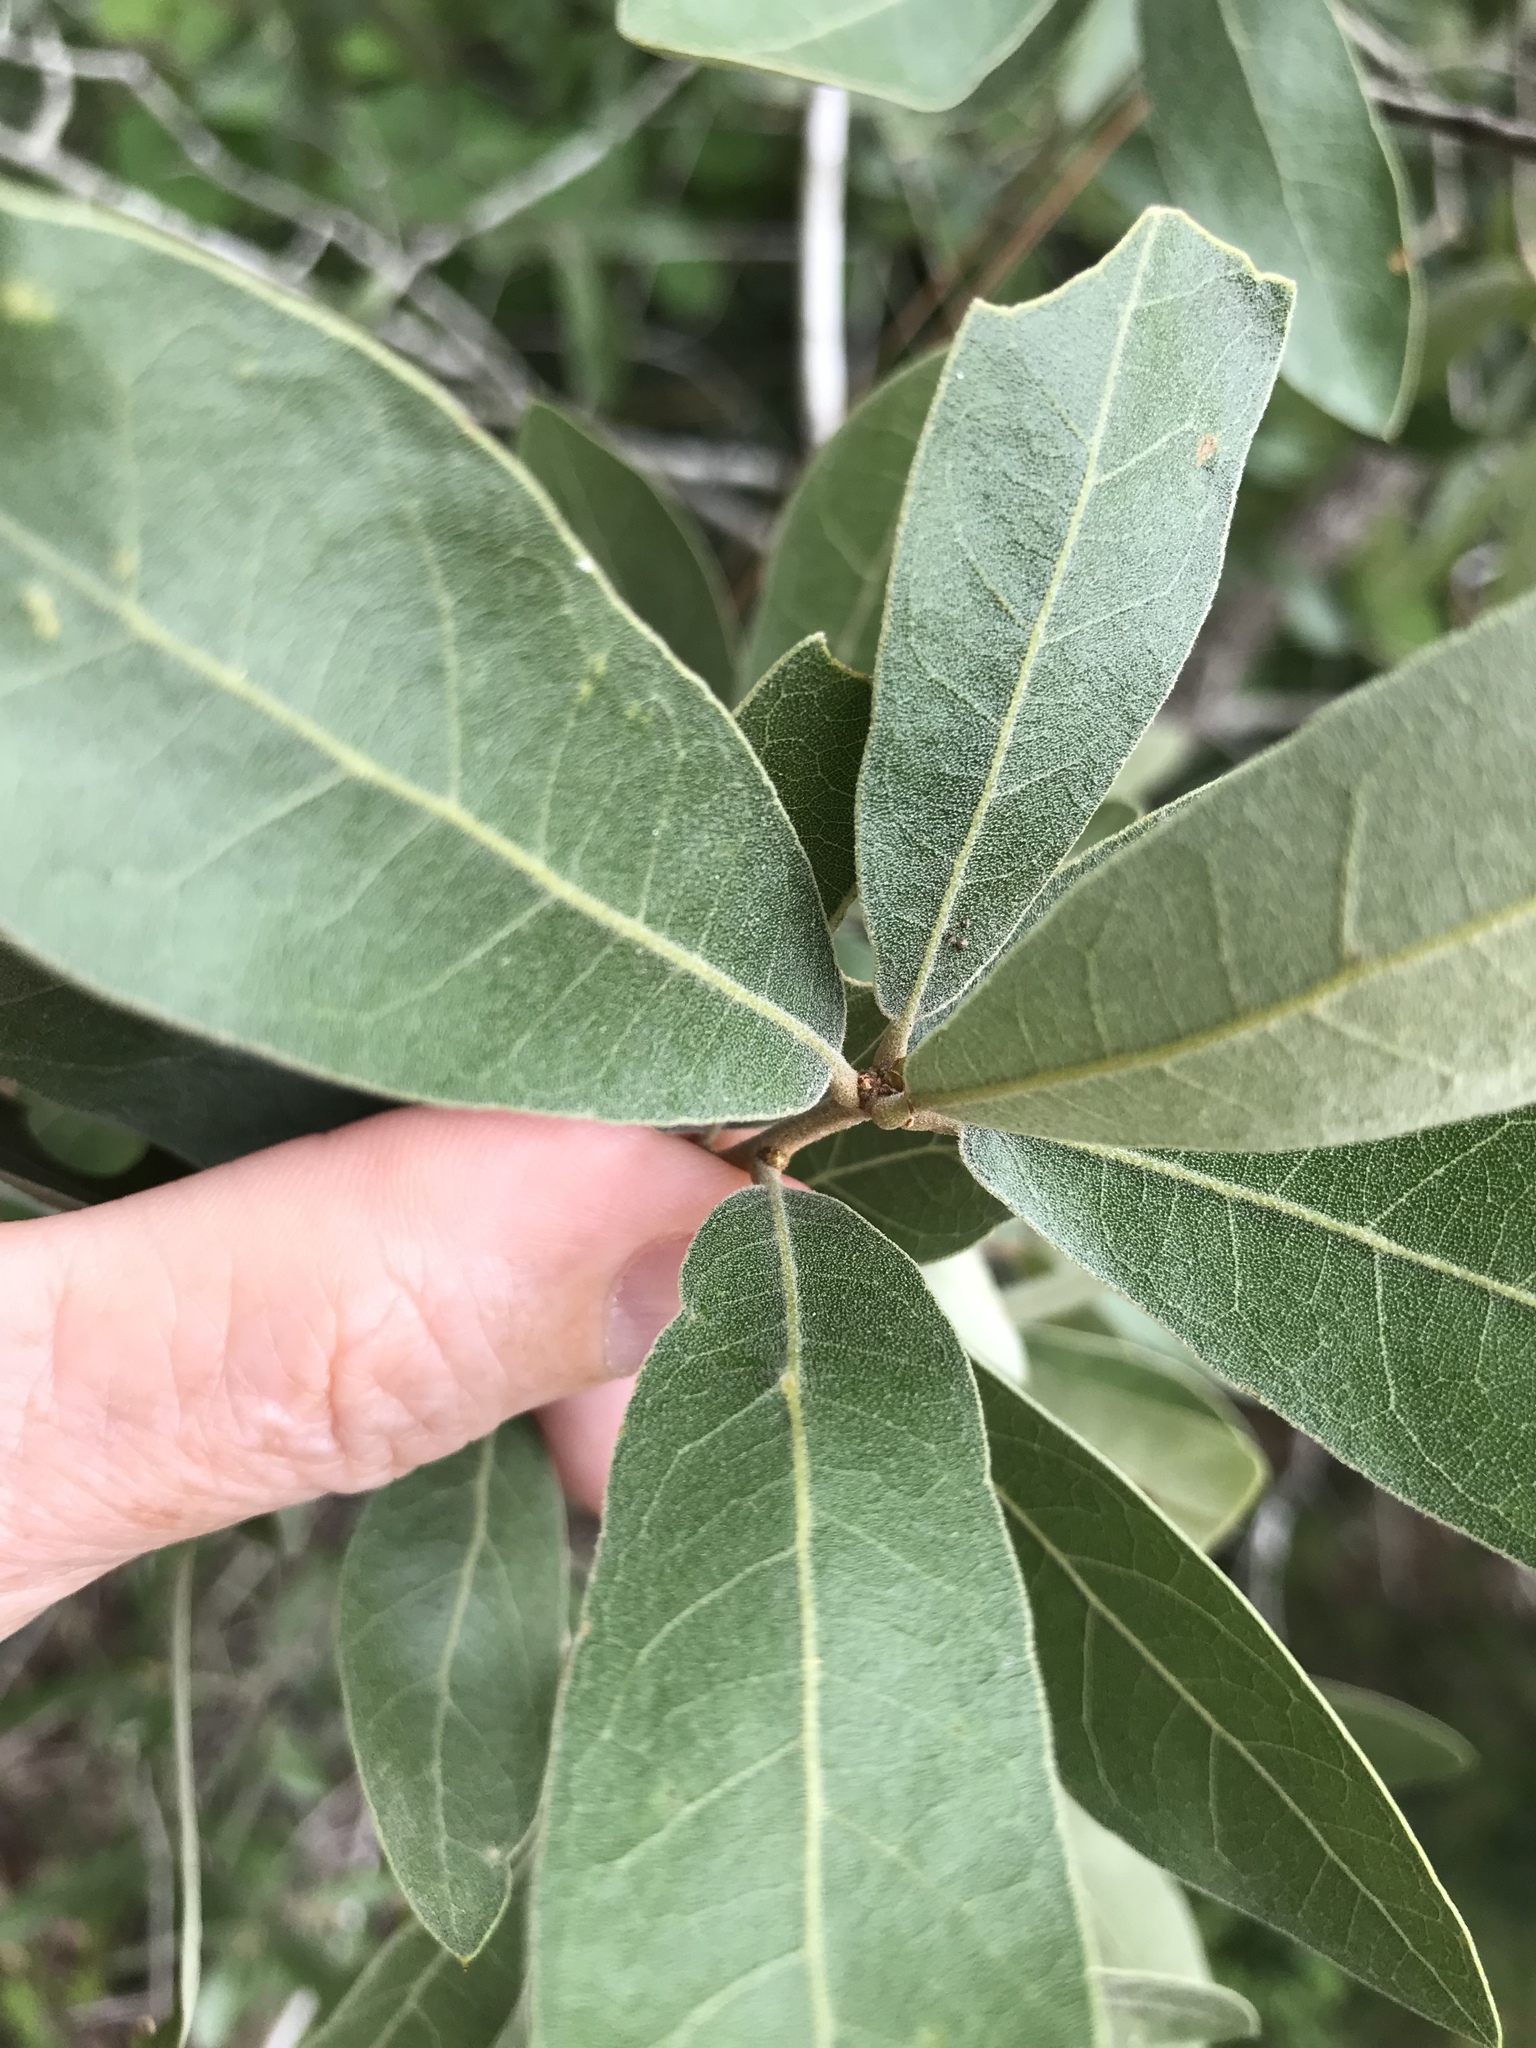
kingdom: Plantae
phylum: Tracheophyta
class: Magnoliopsida
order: Fagales
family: Fagaceae
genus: Quercus
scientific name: Quercus incana
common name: Bluejack oak
